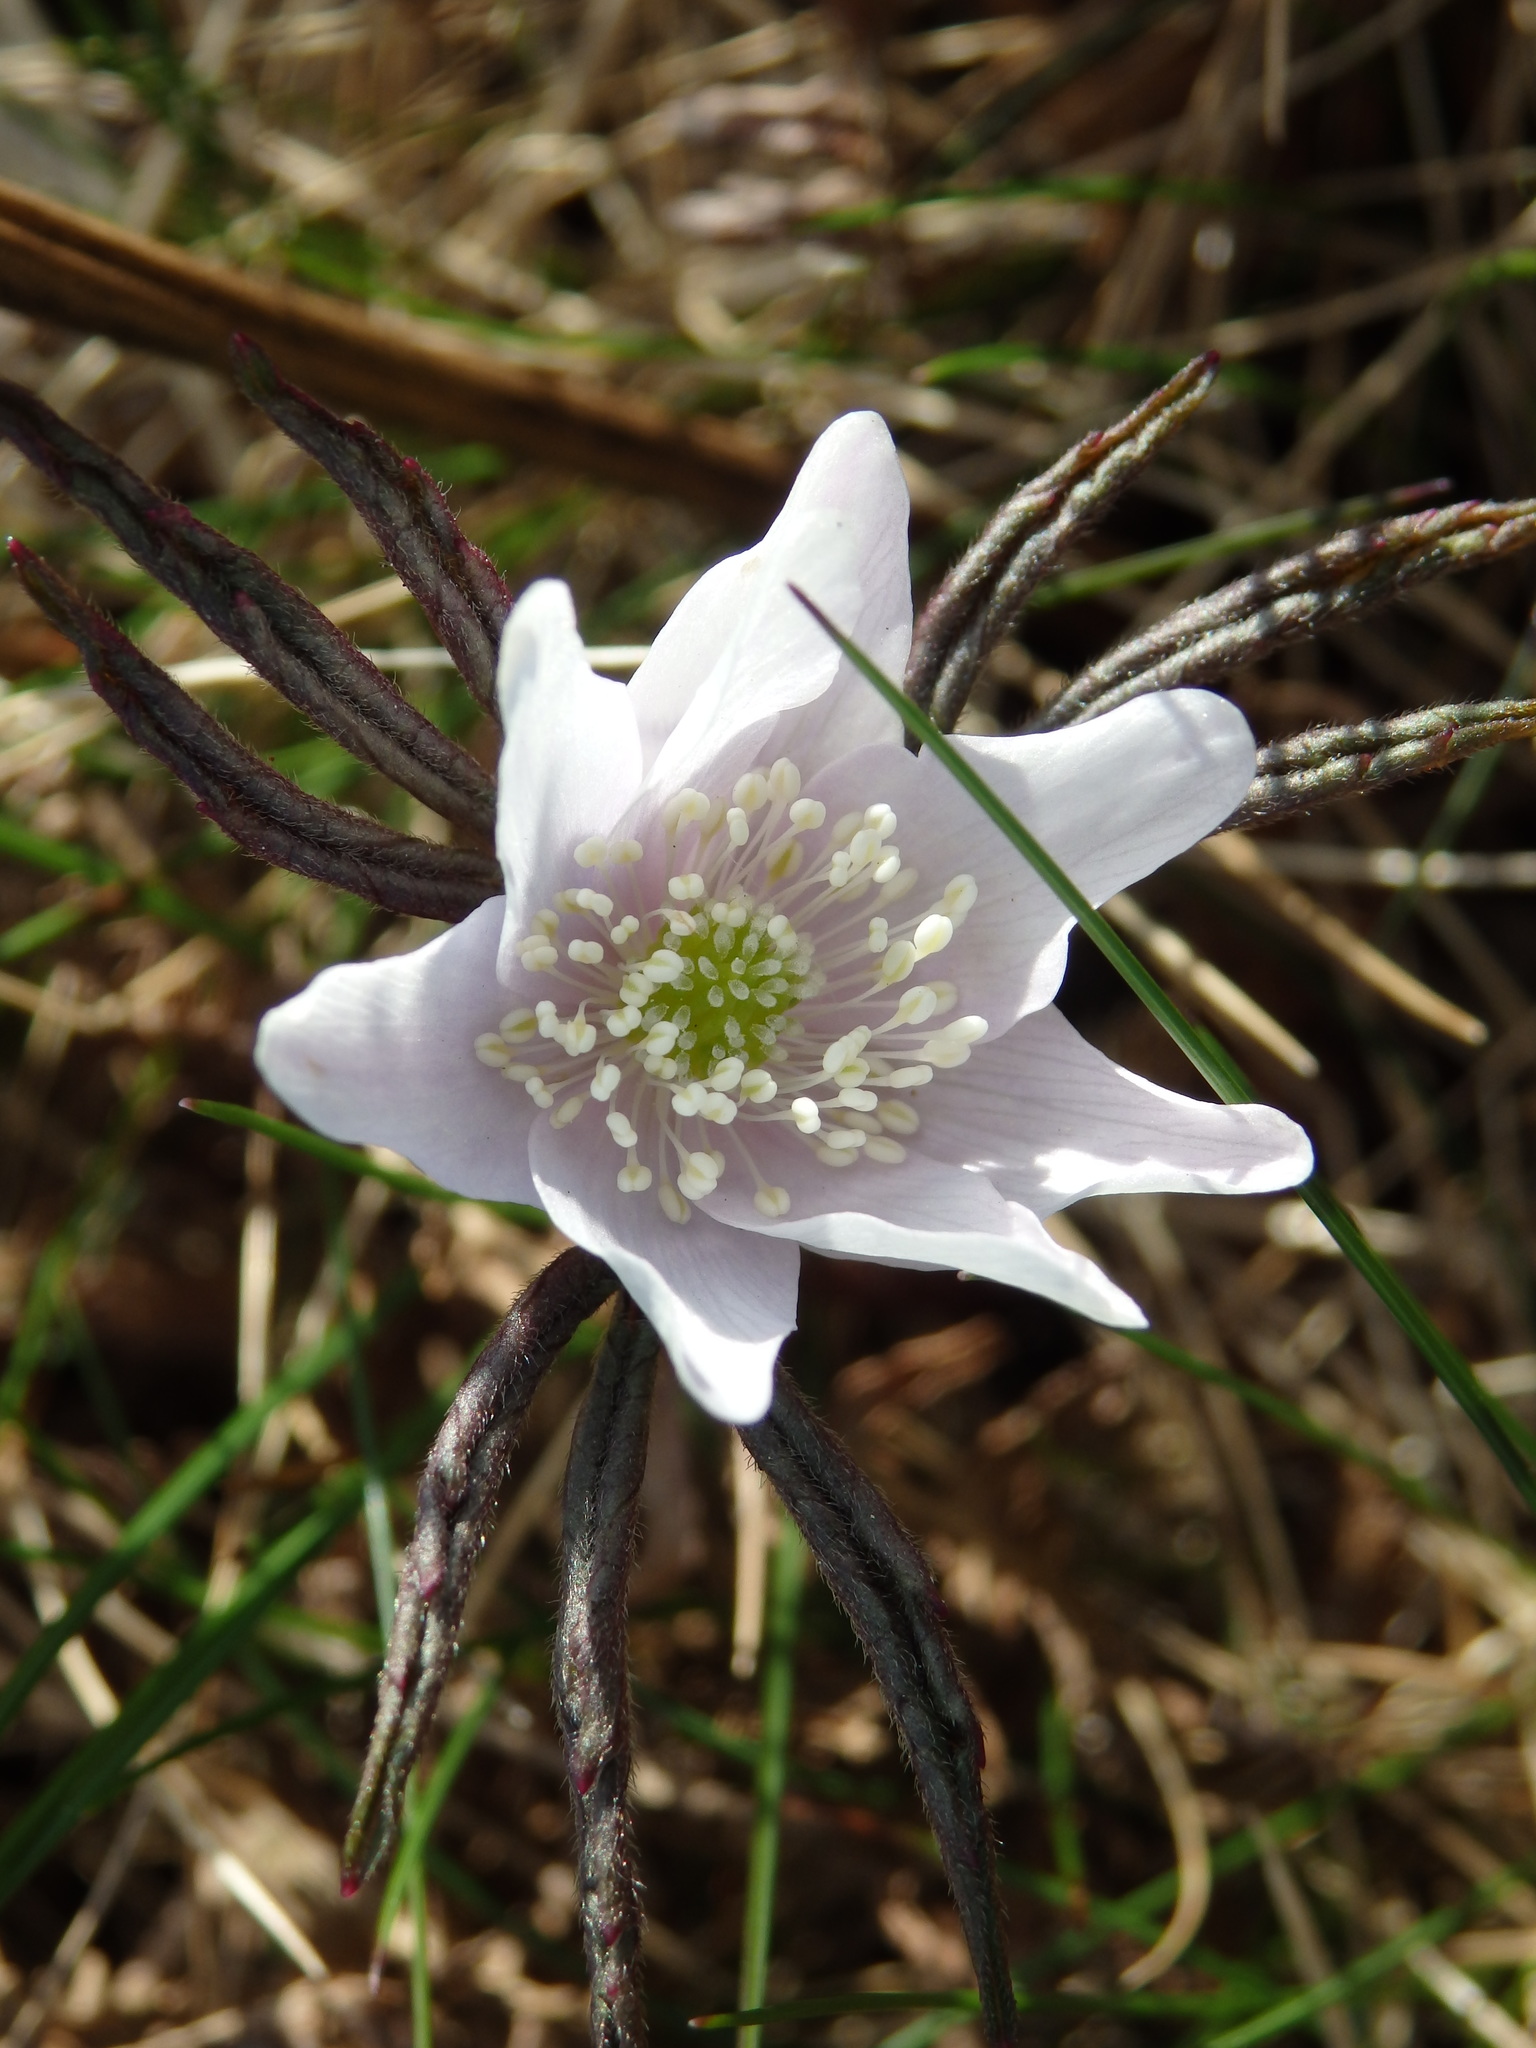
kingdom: Plantae
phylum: Tracheophyta
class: Magnoliopsida
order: Ranunculales
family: Ranunculaceae
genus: Anemone
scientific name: Anemone trifolia
